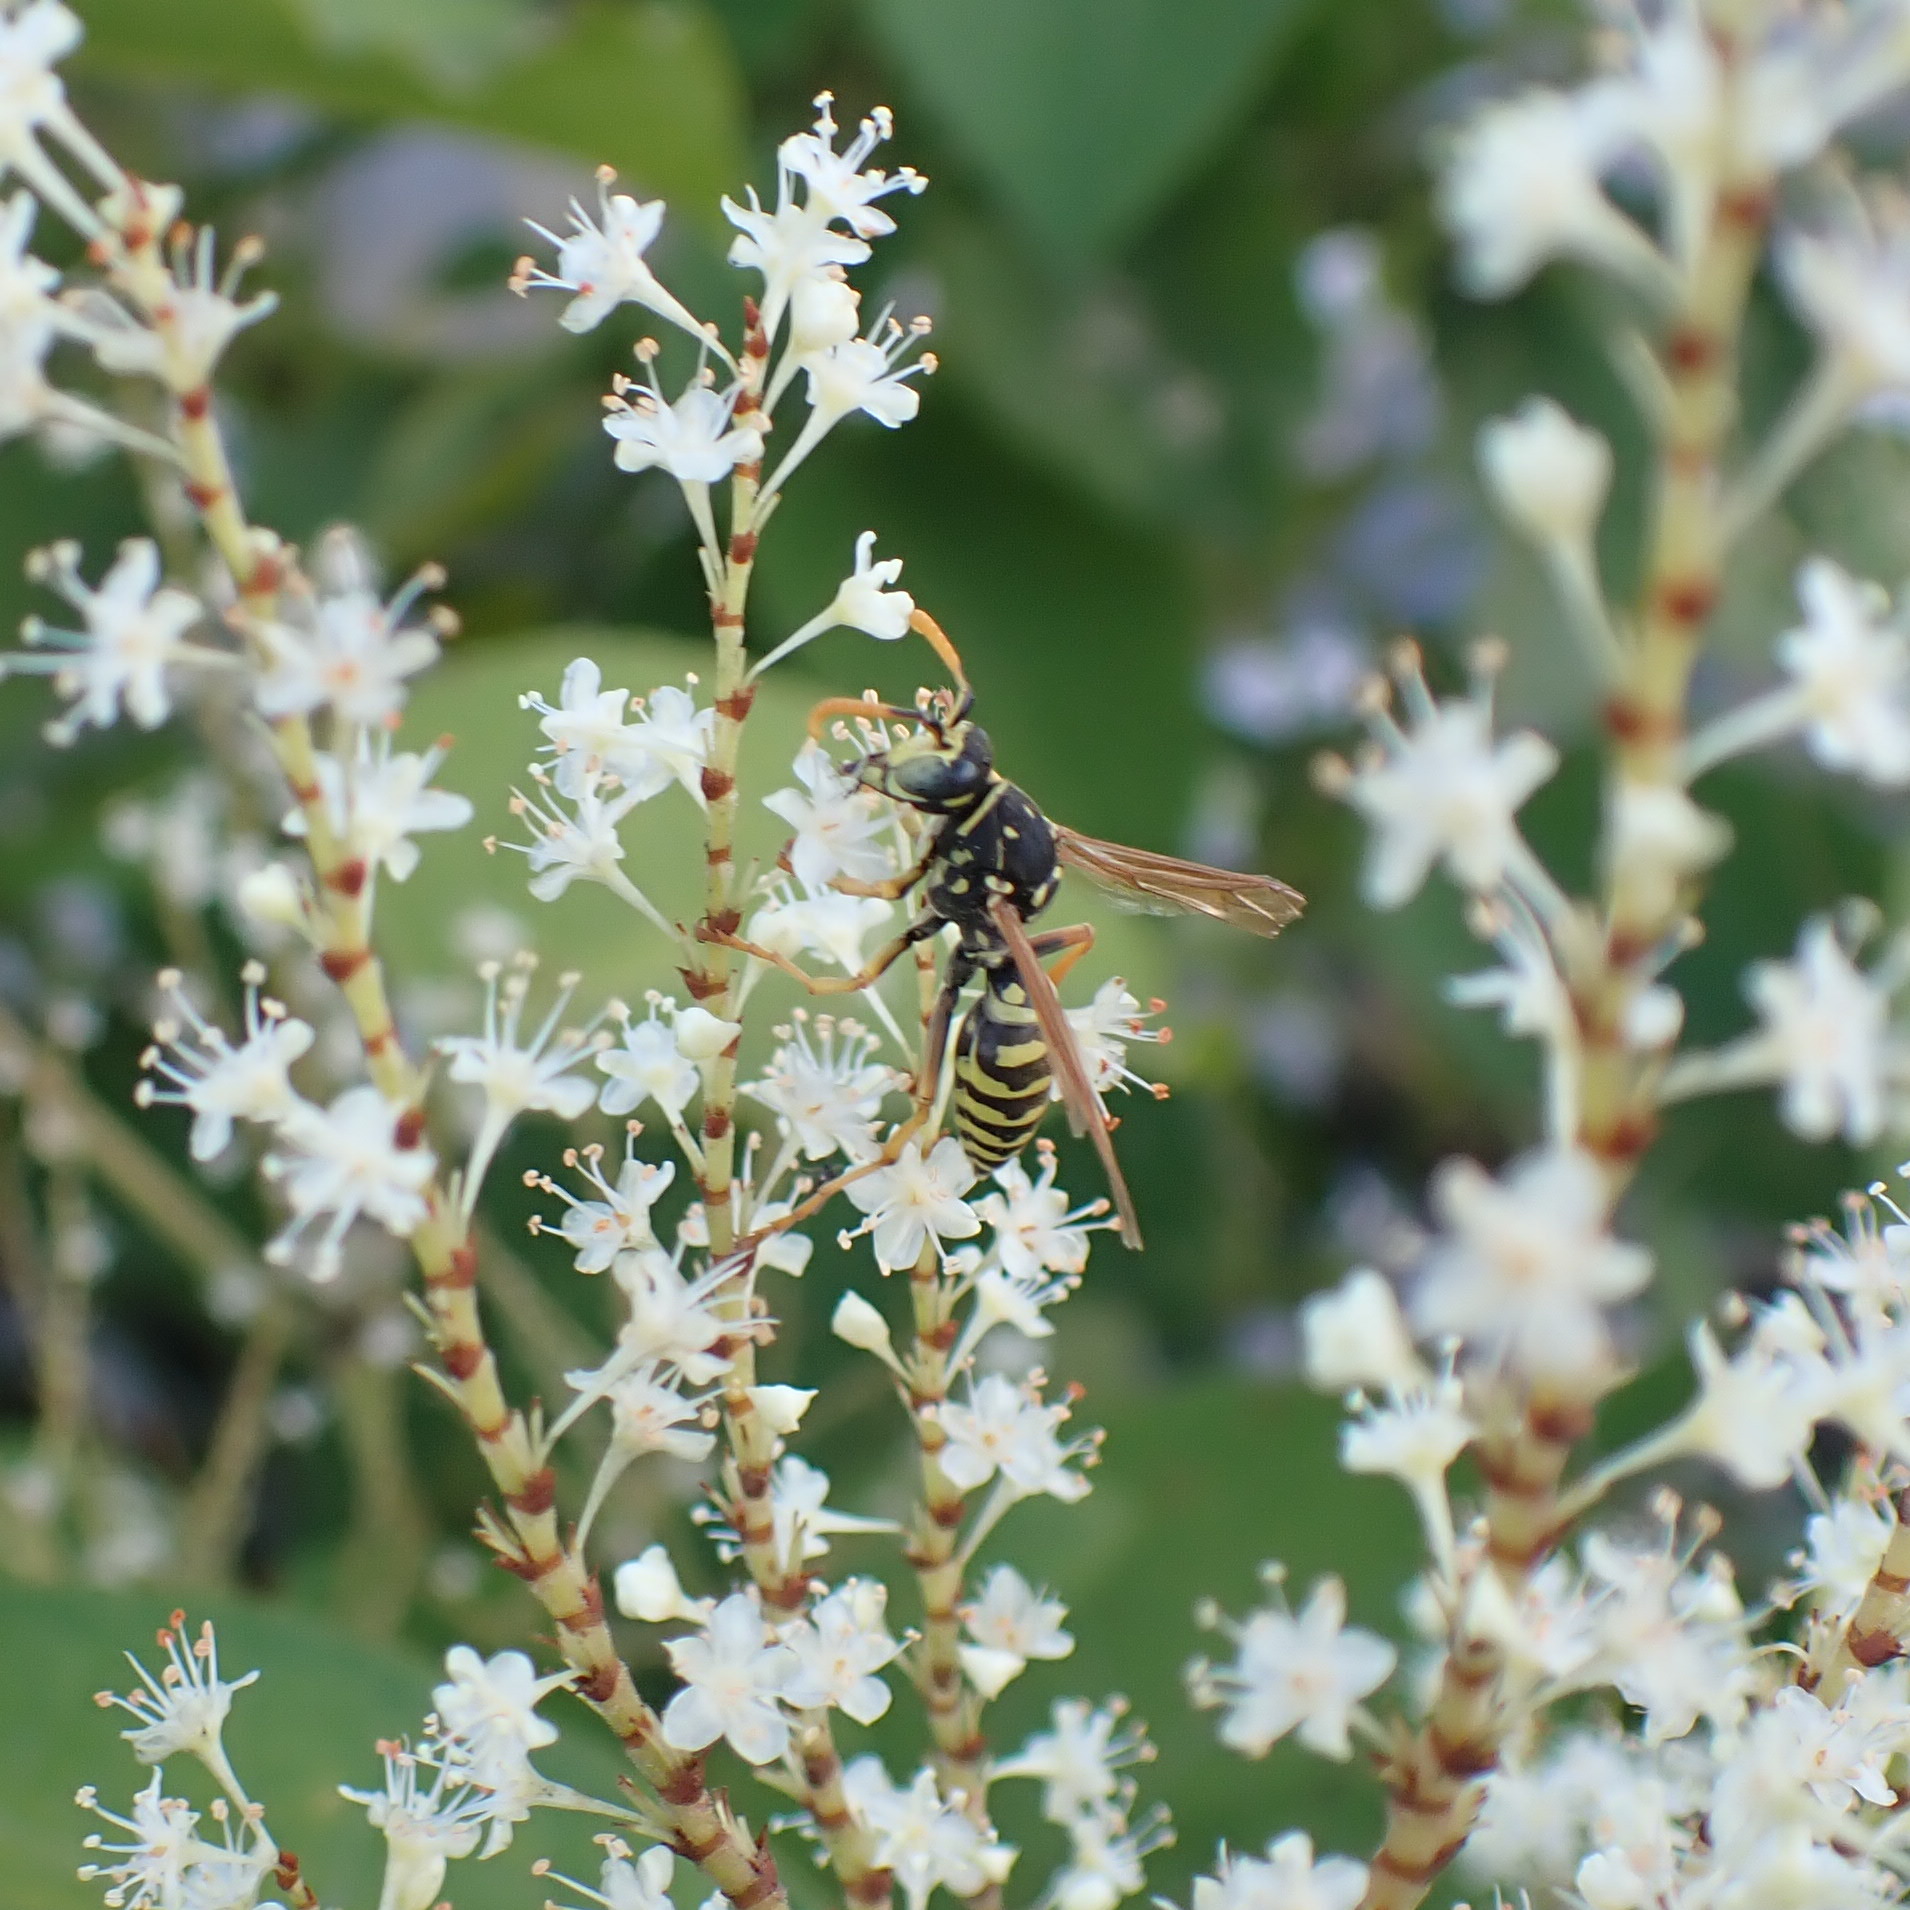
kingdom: Animalia
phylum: Arthropoda
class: Insecta
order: Hymenoptera
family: Eumenidae
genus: Polistes
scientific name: Polistes dominula
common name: Paper wasp
